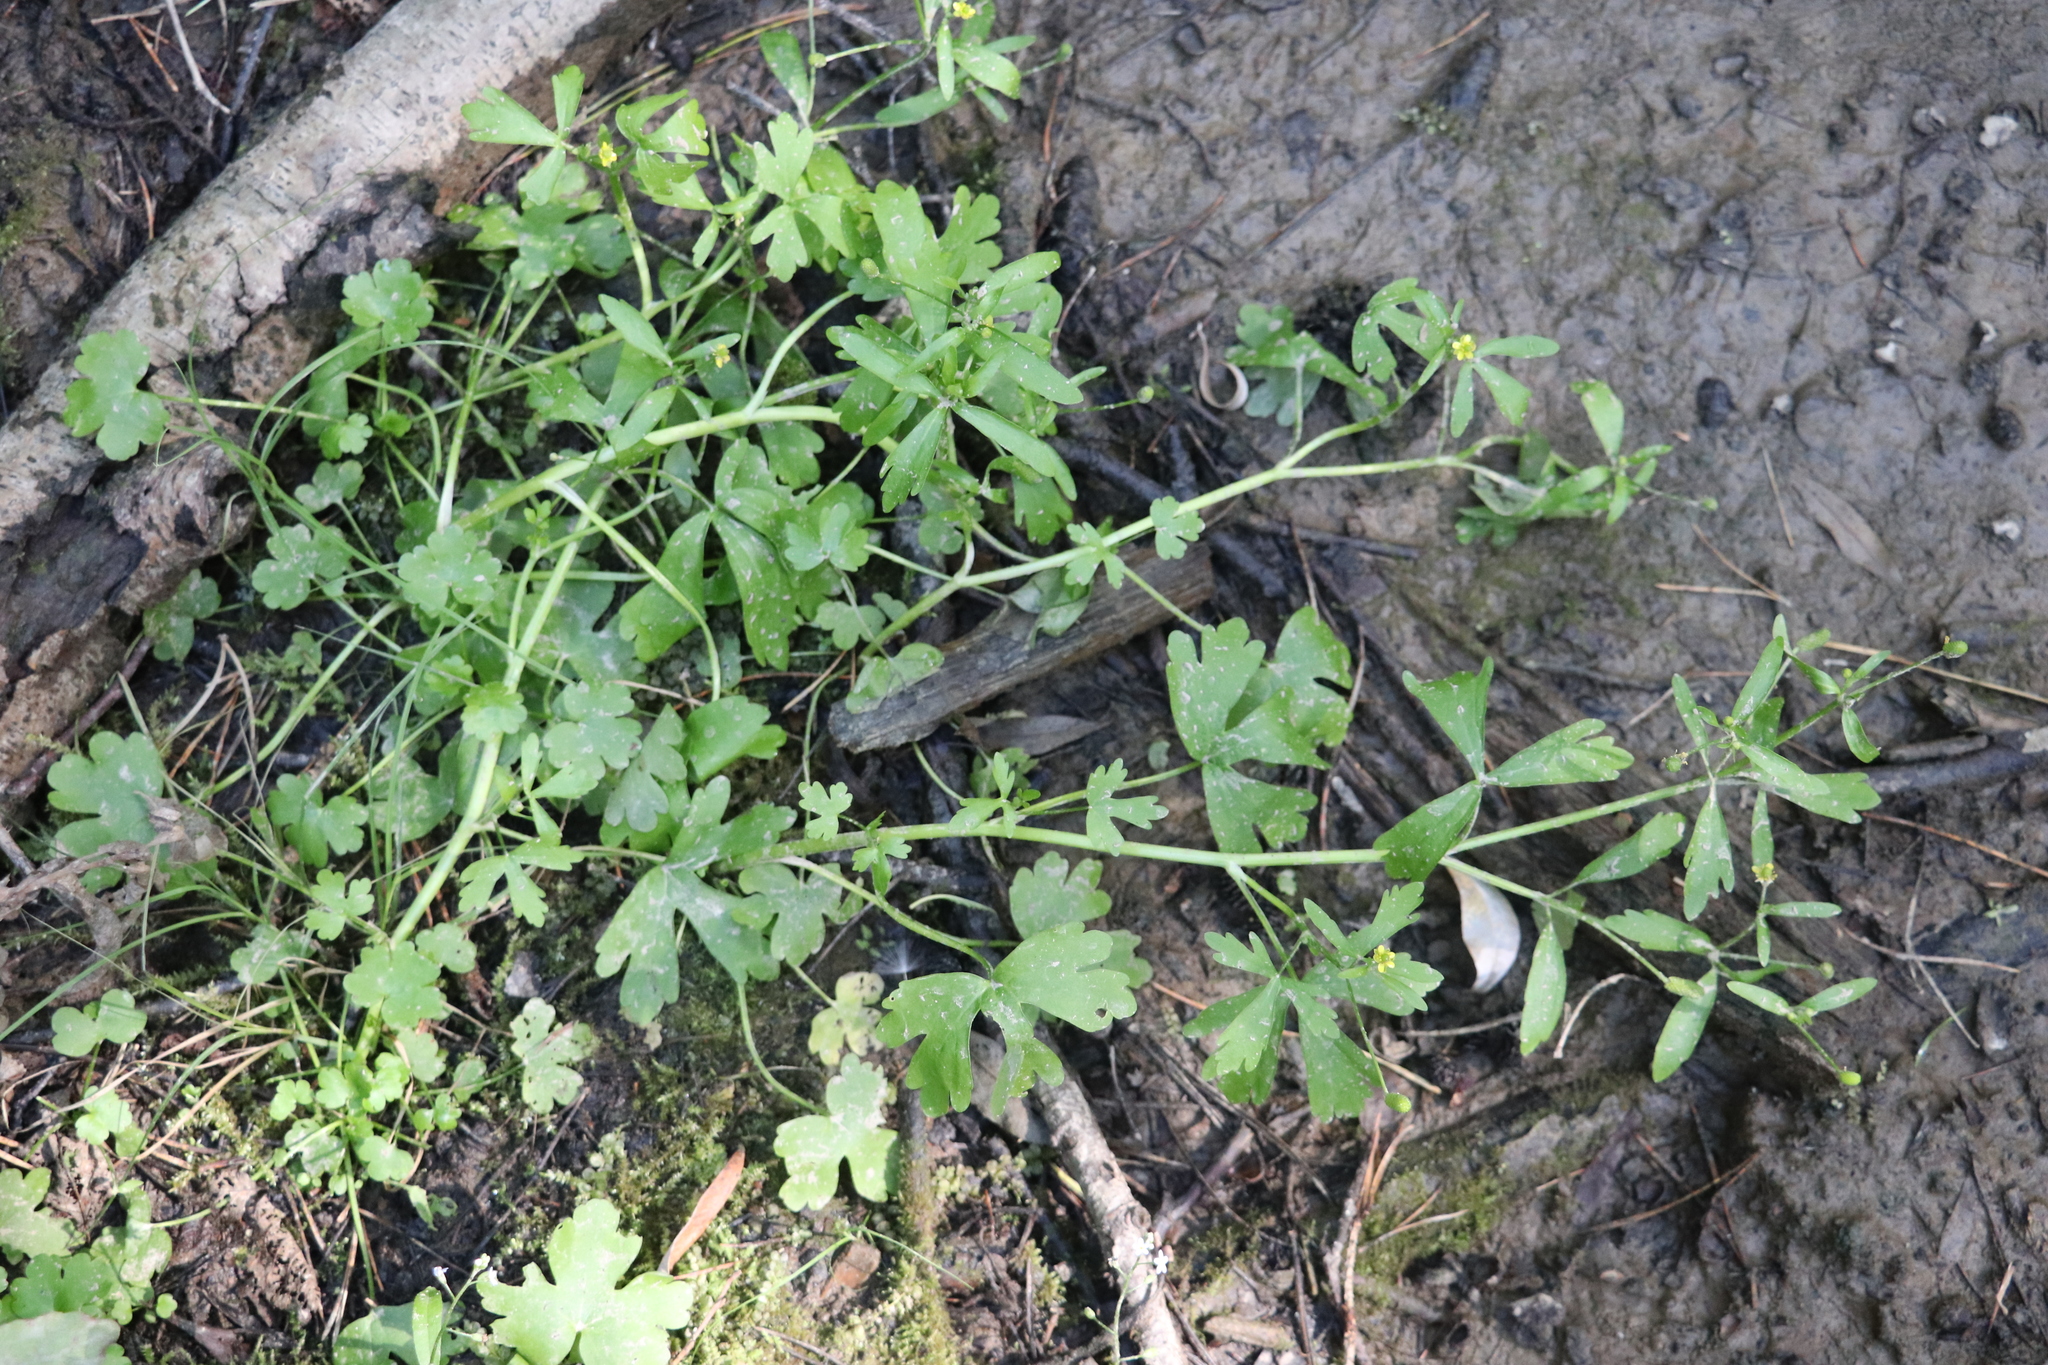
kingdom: Plantae
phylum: Tracheophyta
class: Magnoliopsida
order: Ranunculales
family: Ranunculaceae
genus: Ranunculus
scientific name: Ranunculus sceleratus
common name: Celery-leaved buttercup
